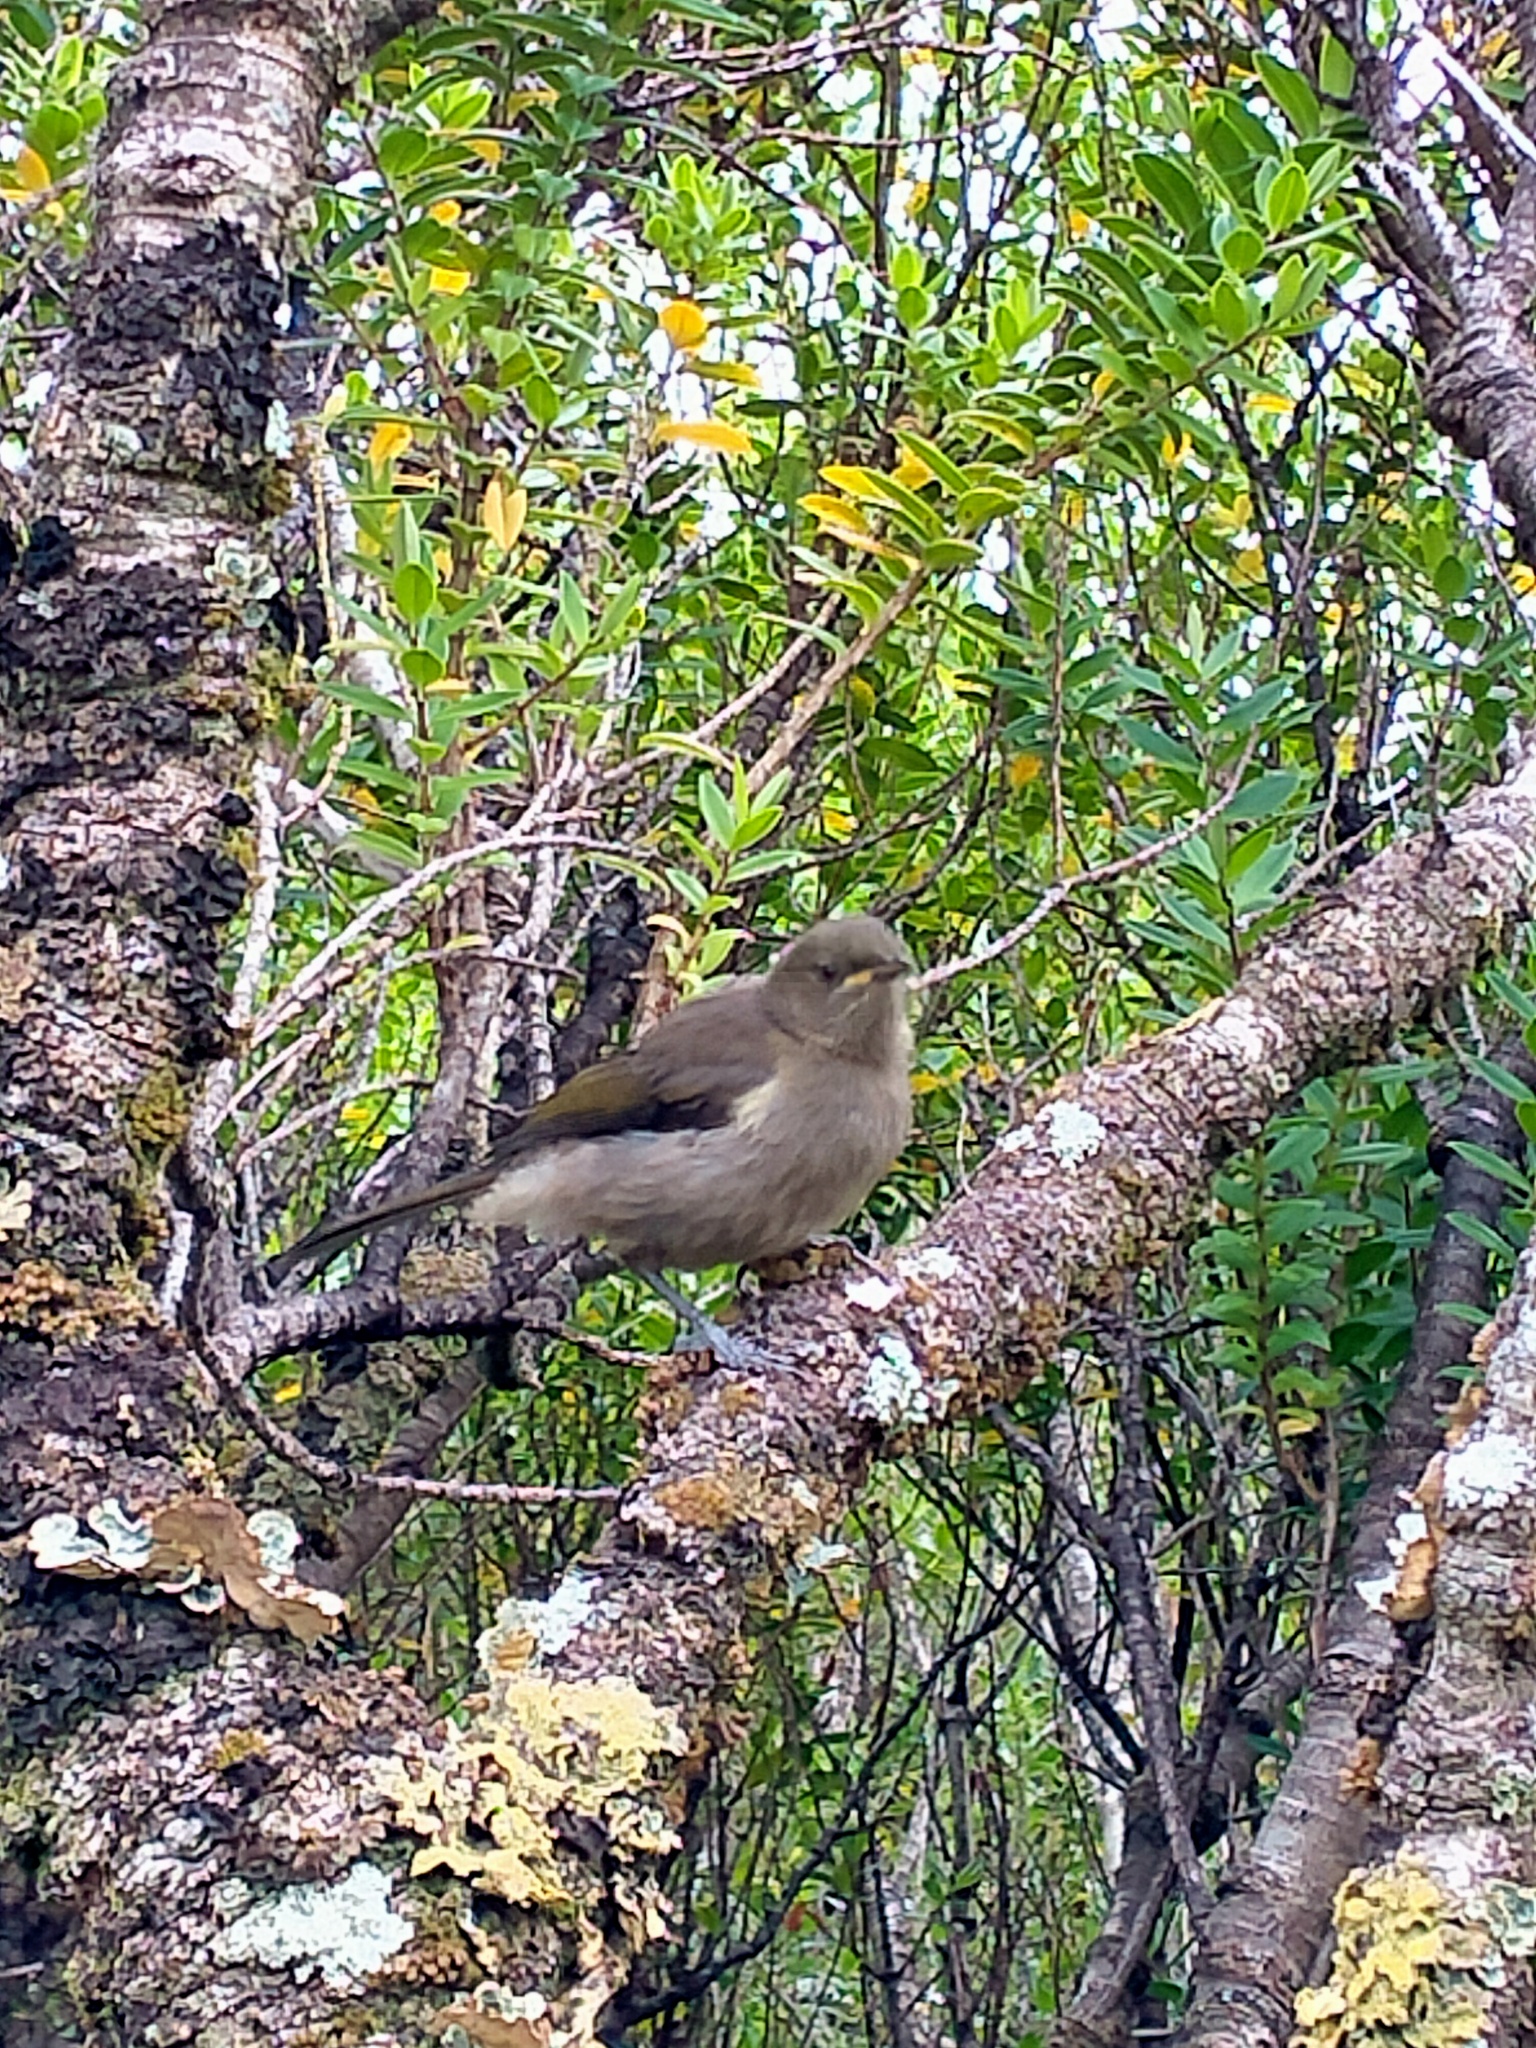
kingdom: Animalia
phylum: Chordata
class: Aves
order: Passeriformes
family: Meliphagidae
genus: Anthornis
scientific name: Anthornis melanura
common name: New zealand bellbird
